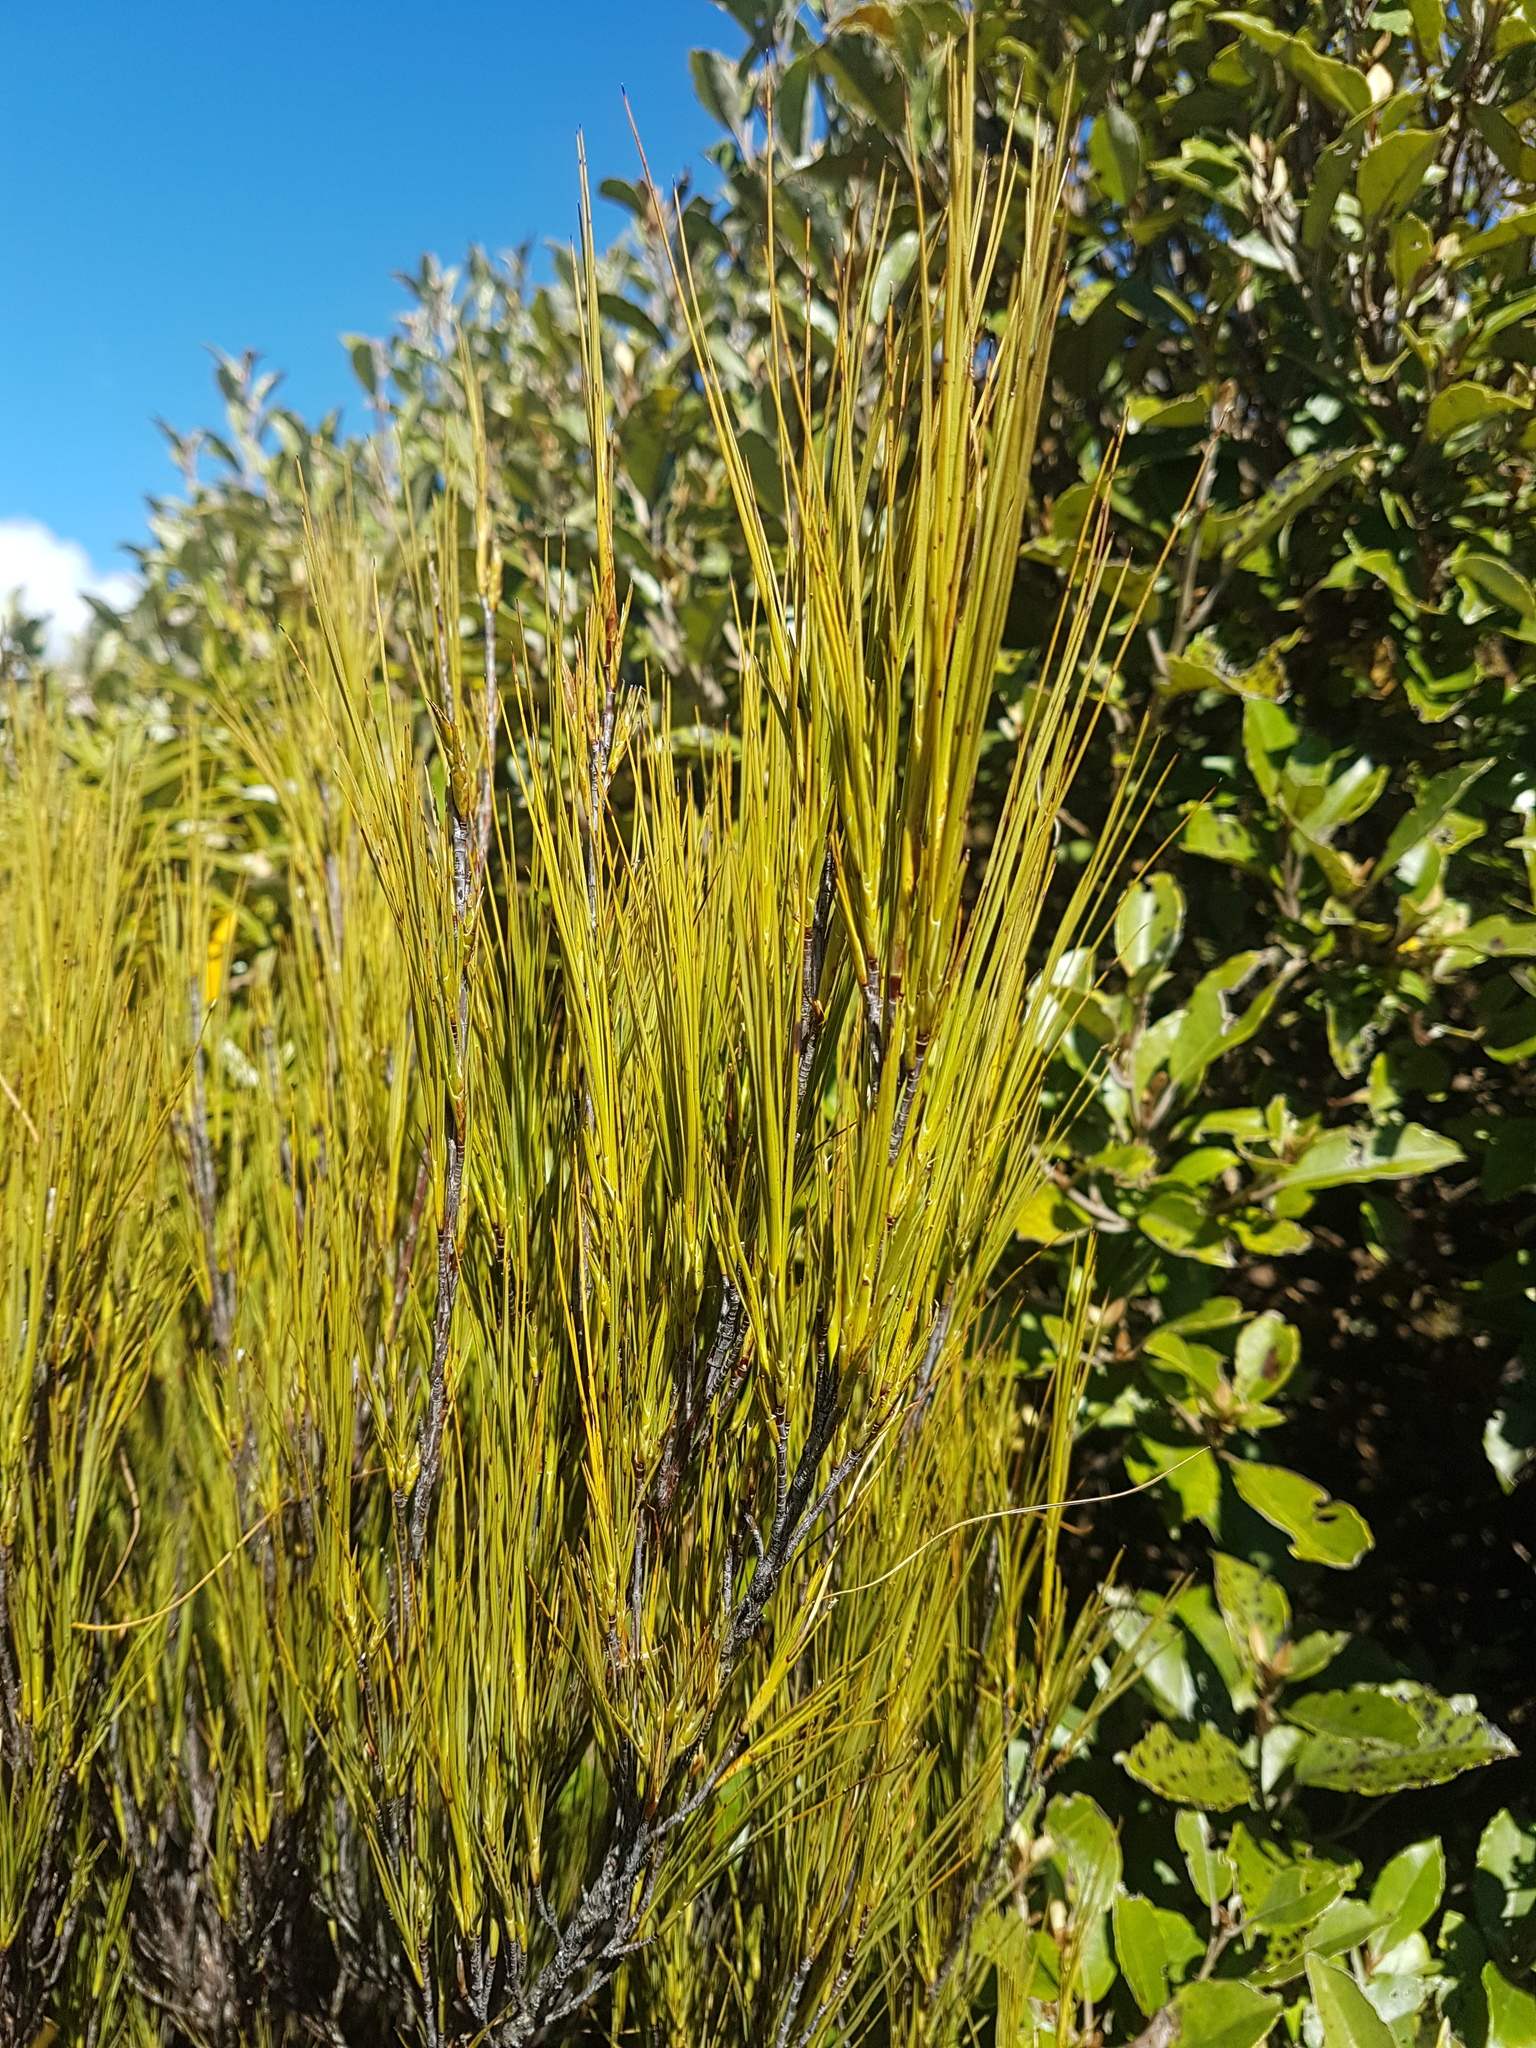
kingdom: Plantae
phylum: Tracheophyta
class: Magnoliopsida
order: Ericales
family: Ericaceae
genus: Dracophyllum
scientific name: Dracophyllum filifolium
